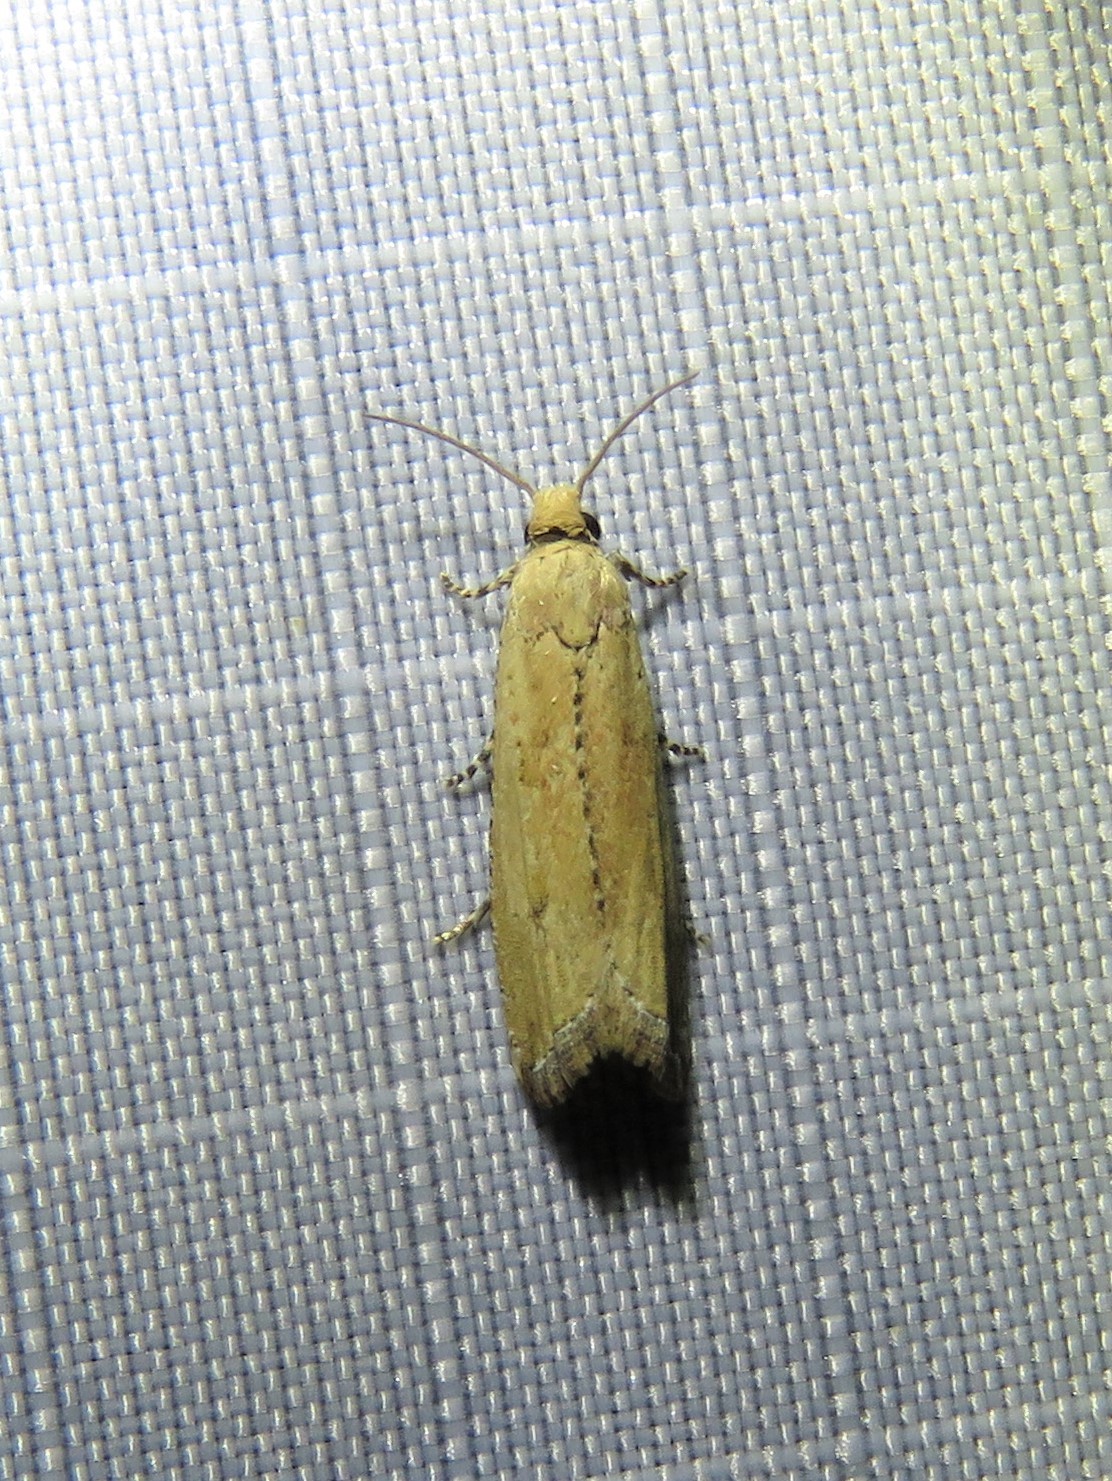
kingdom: Animalia
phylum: Arthropoda
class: Insecta
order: Lepidoptera
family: Tortricidae
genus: Bactra
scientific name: Bactra verutana
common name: Javelin moth
